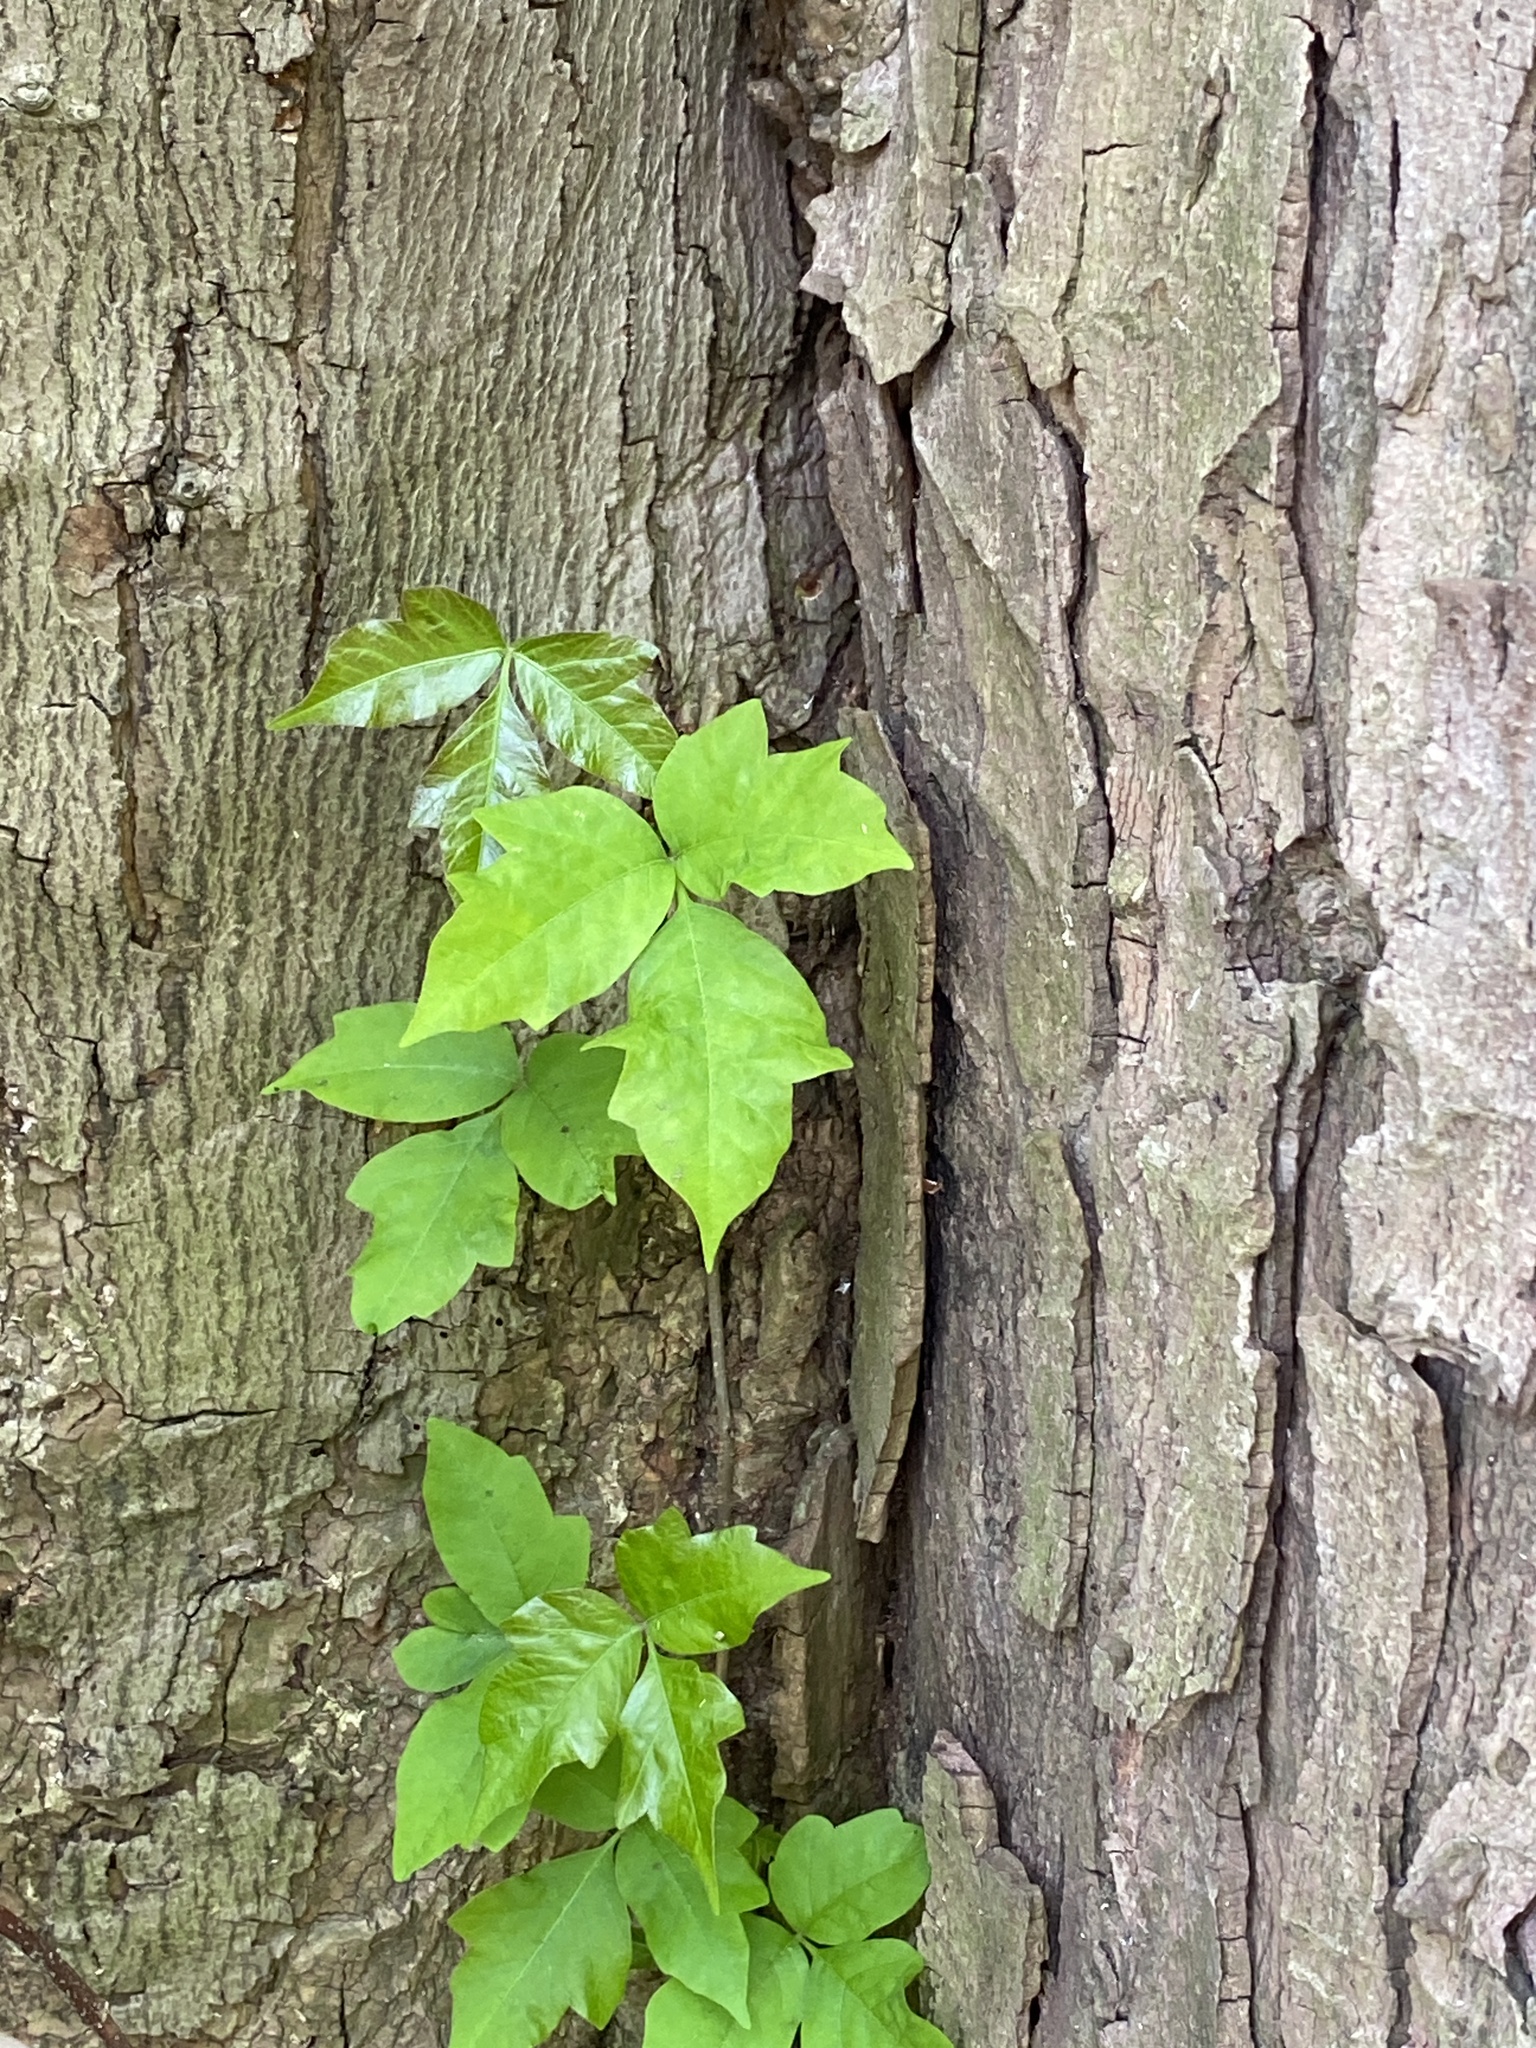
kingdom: Plantae
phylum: Tracheophyta
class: Magnoliopsida
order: Sapindales
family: Anacardiaceae
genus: Toxicodendron
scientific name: Toxicodendron radicans
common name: Poison ivy
